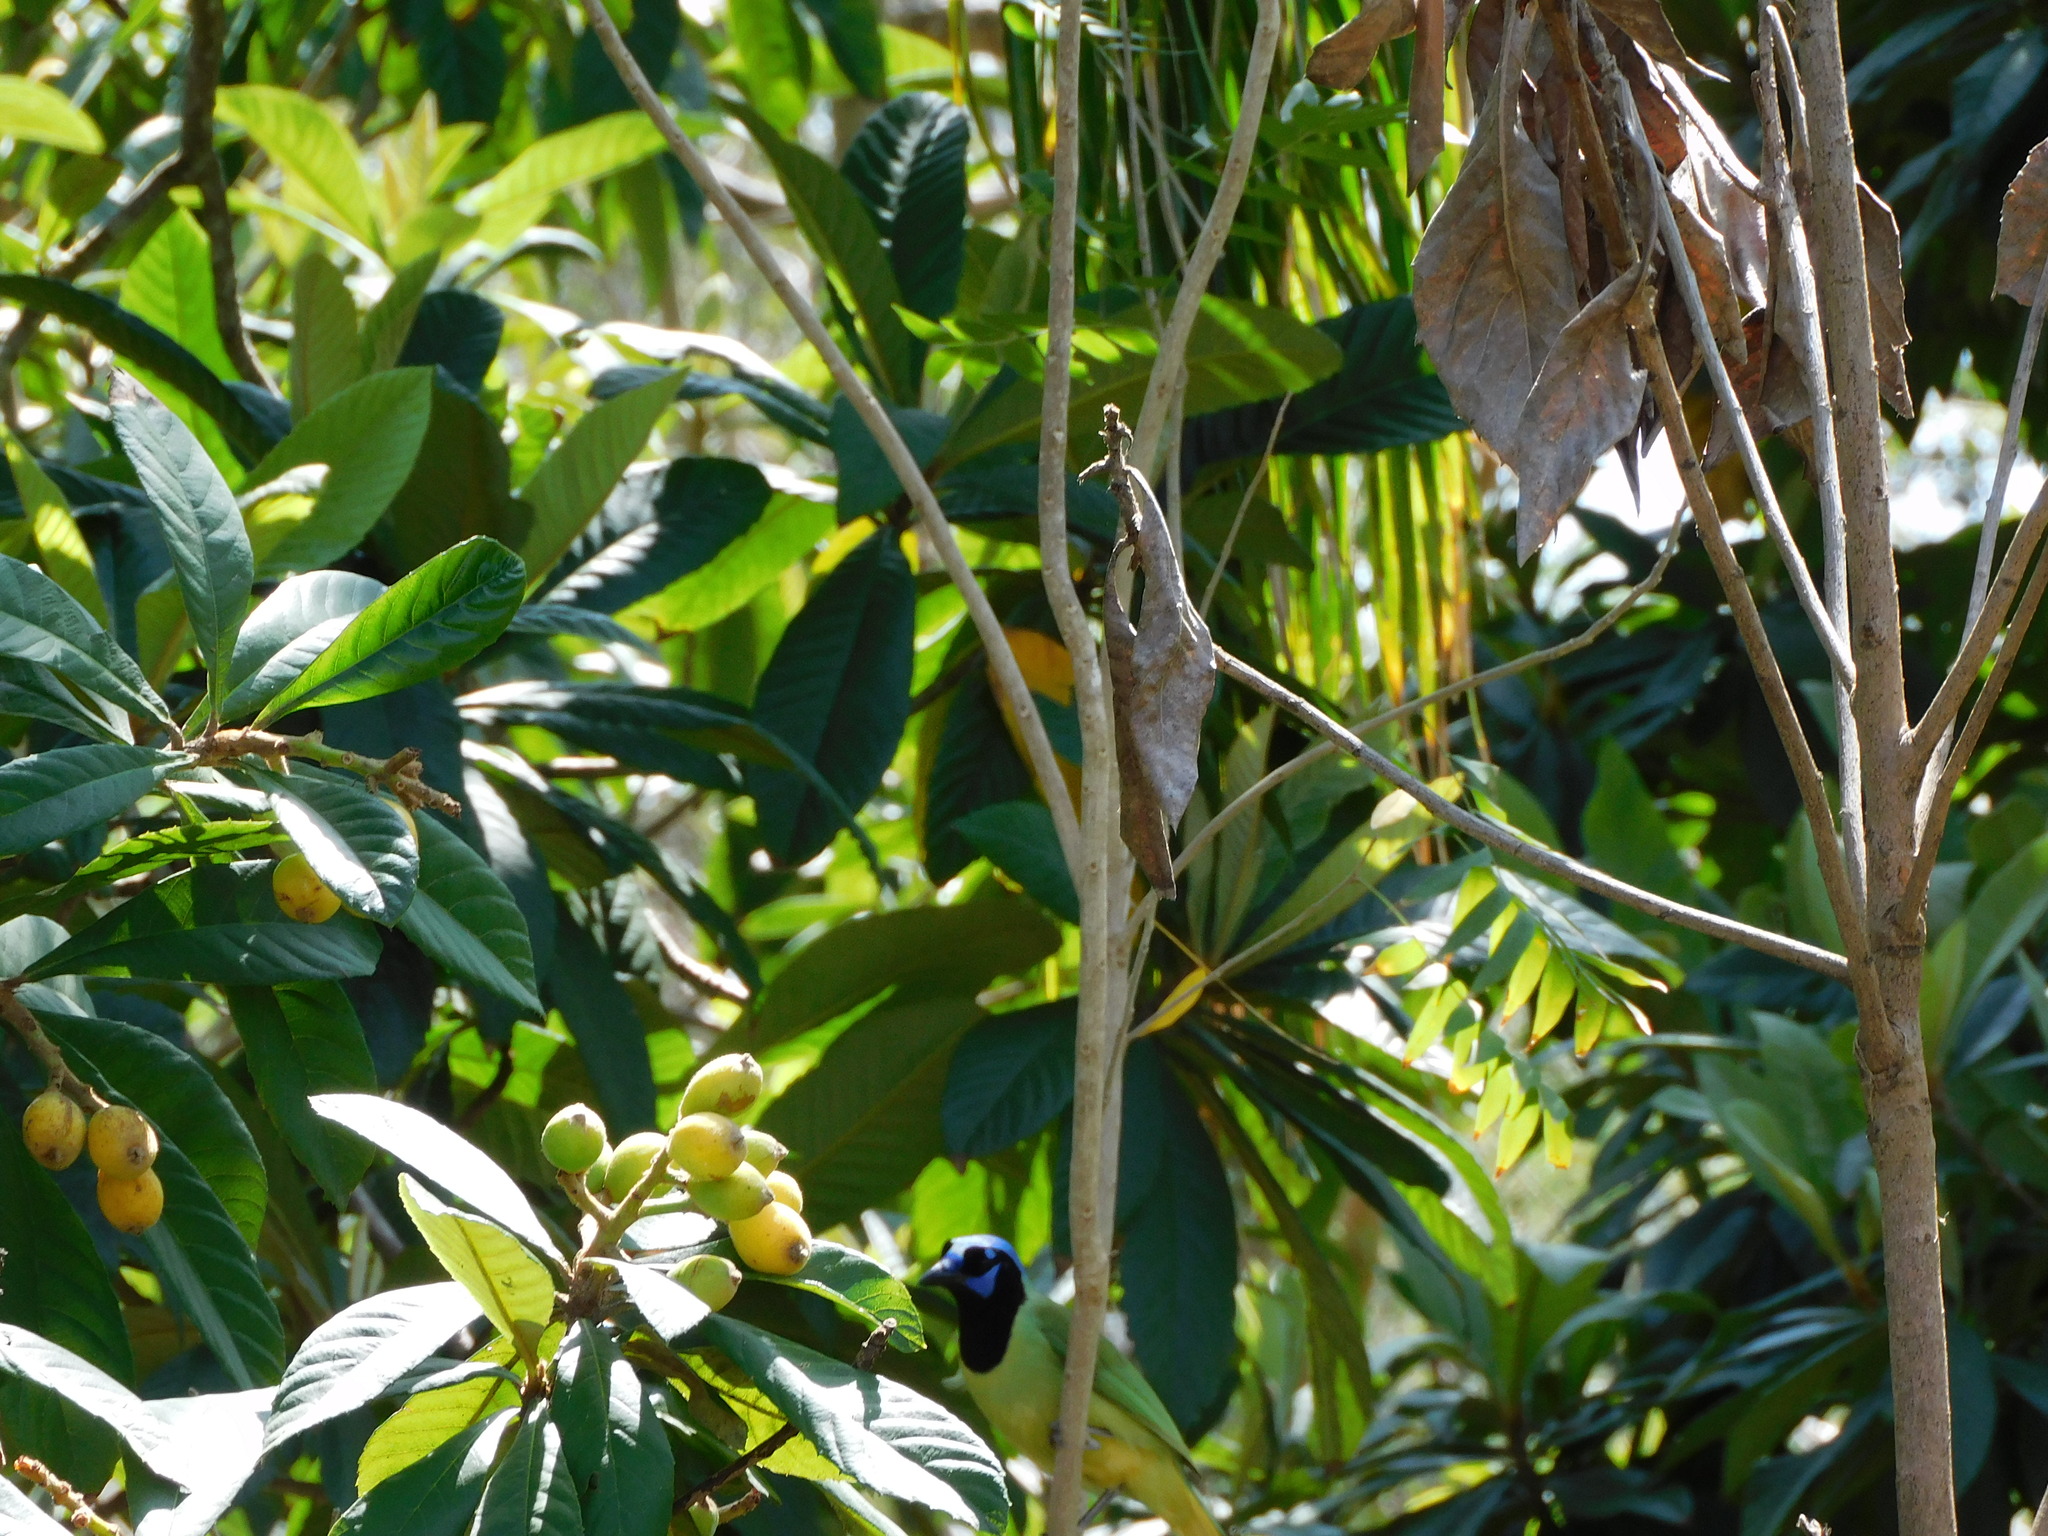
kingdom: Animalia
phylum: Chordata
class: Aves
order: Passeriformes
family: Corvidae
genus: Cyanocorax
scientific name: Cyanocorax yncas
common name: Green jay
